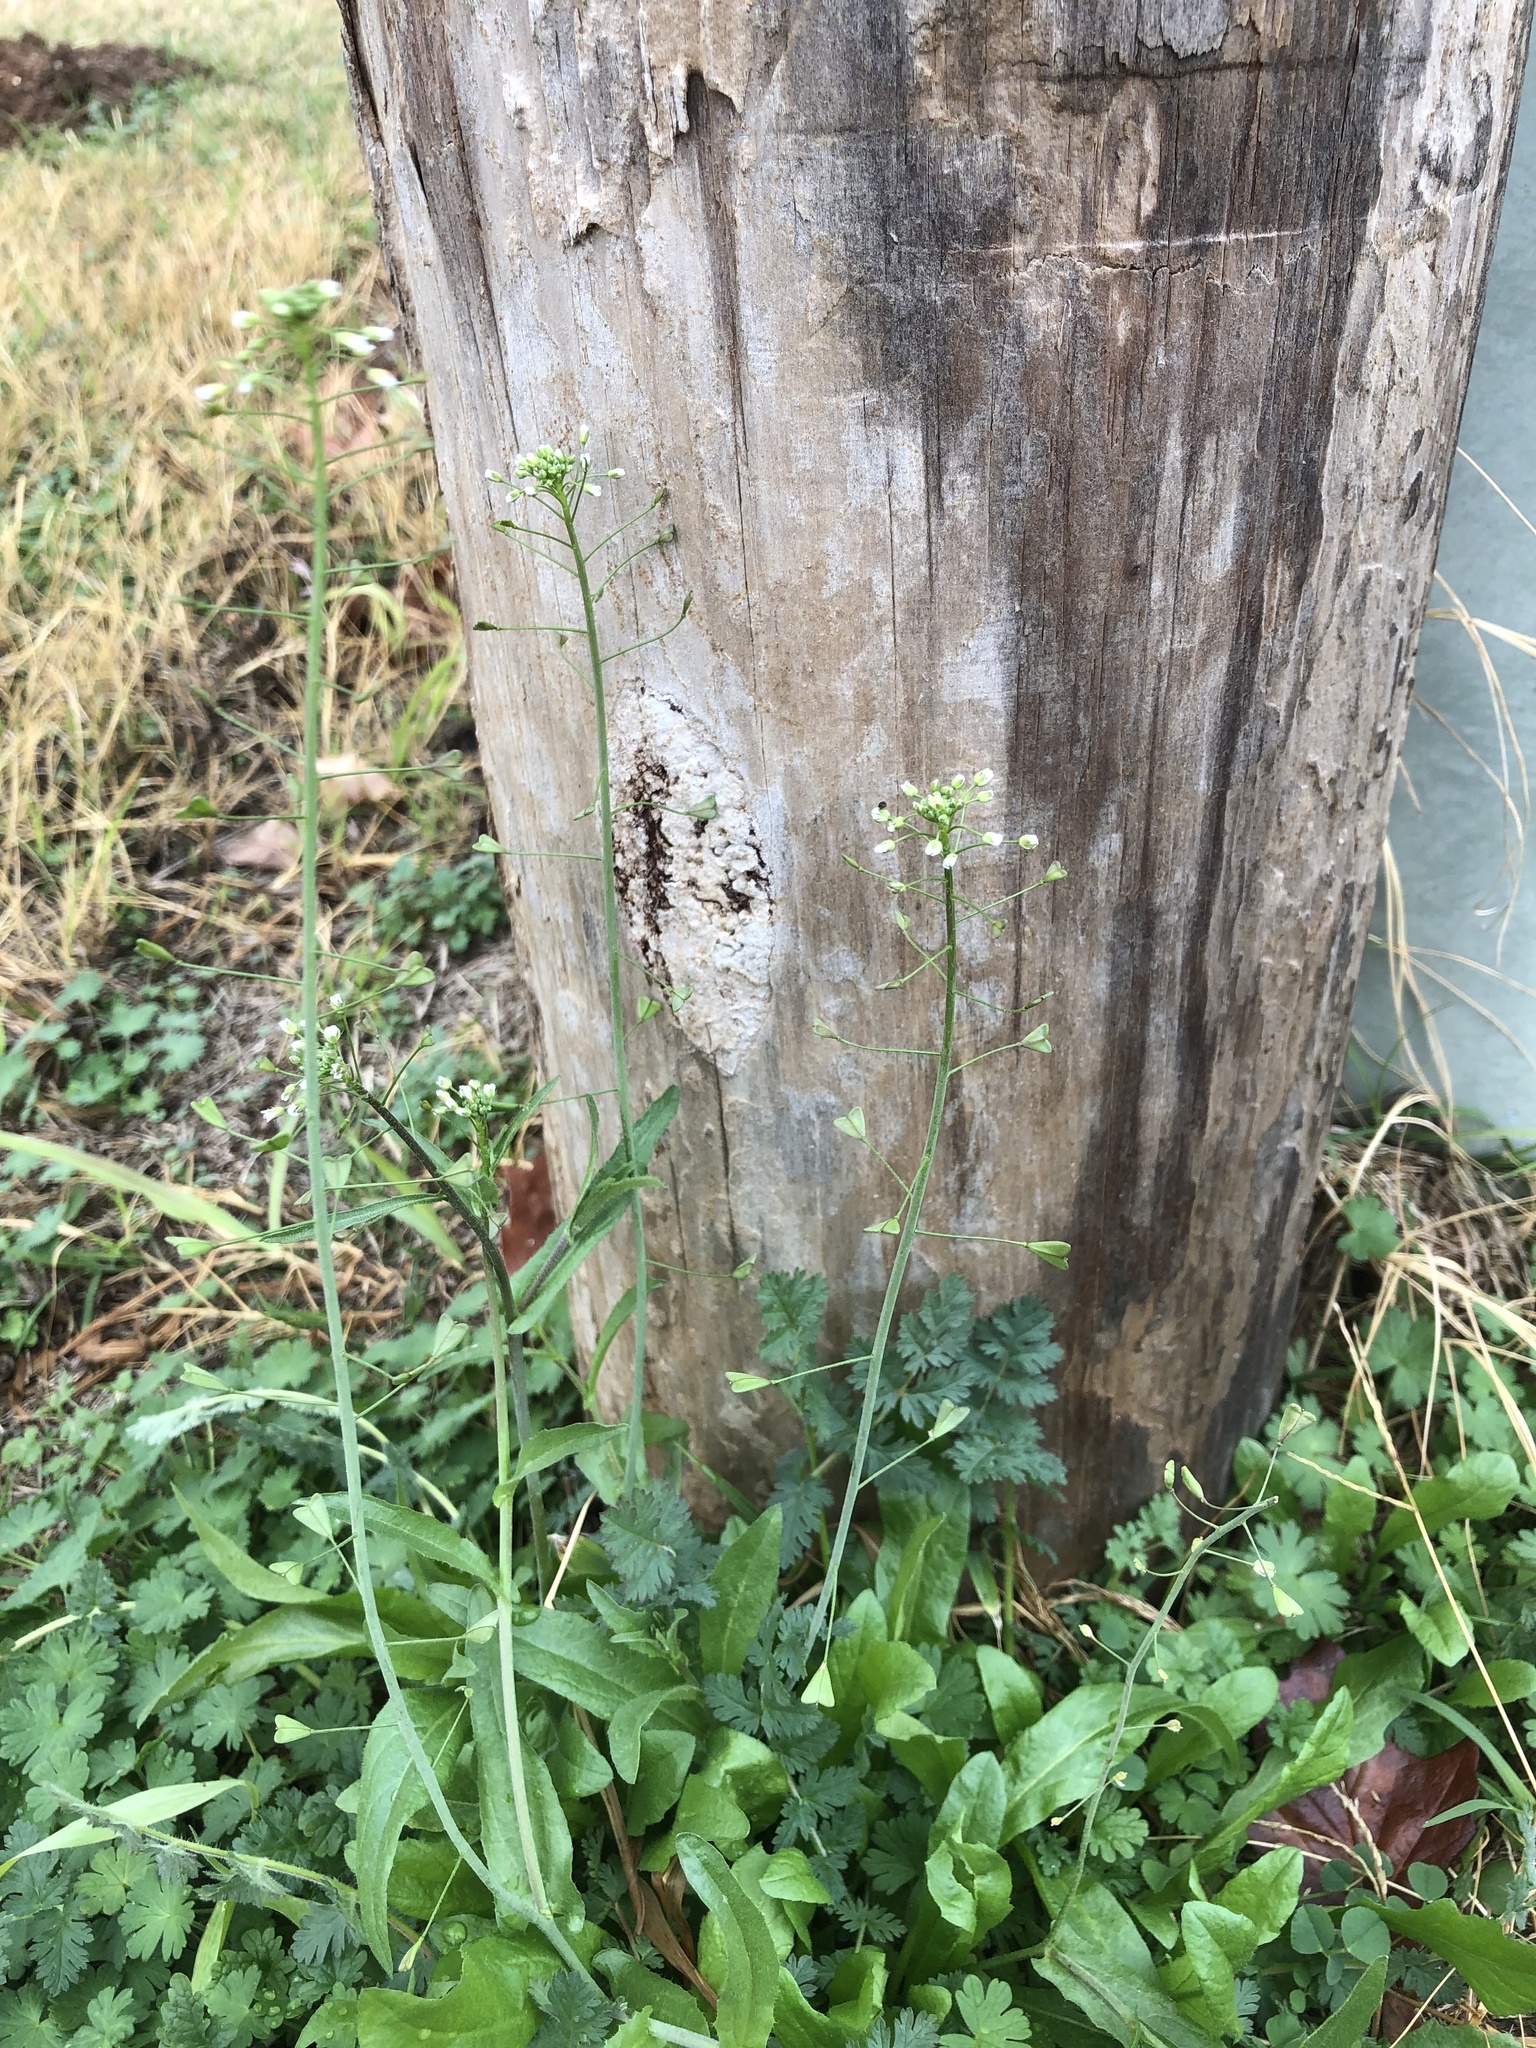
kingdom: Plantae
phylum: Tracheophyta
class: Magnoliopsida
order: Brassicales
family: Brassicaceae
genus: Capsella
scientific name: Capsella bursa-pastoris
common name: Shepherd's purse
